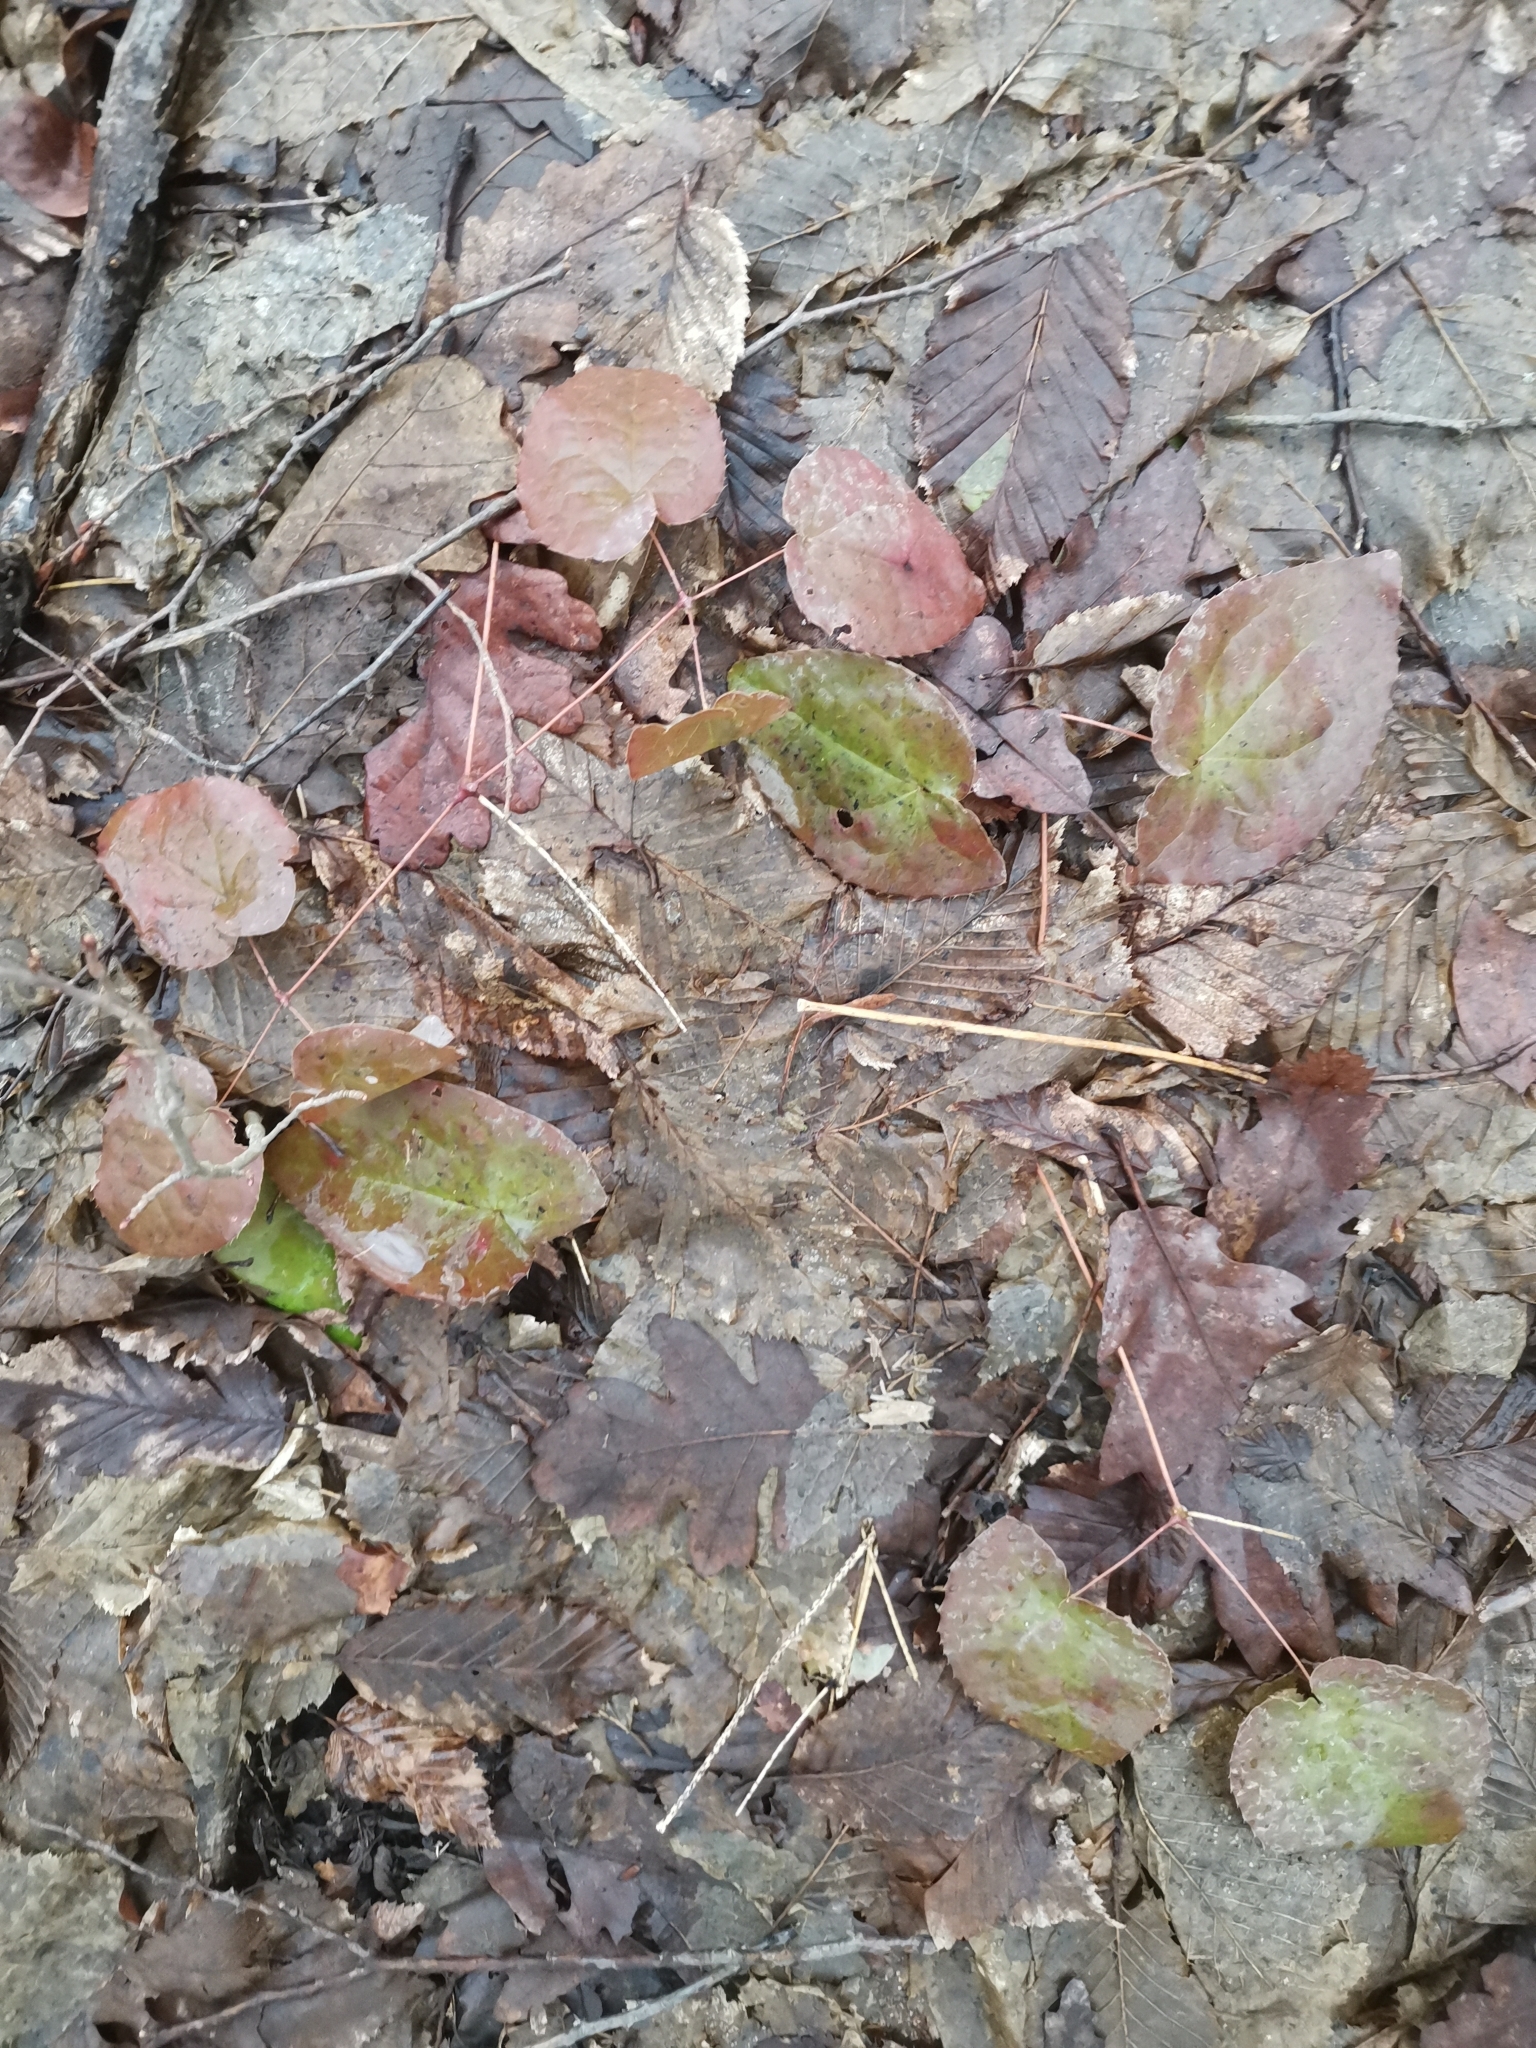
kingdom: Plantae
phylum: Tracheophyta
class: Magnoliopsida
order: Ranunculales
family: Berberidaceae
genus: Epimedium
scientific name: Epimedium alpinum
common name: Barrenwort
